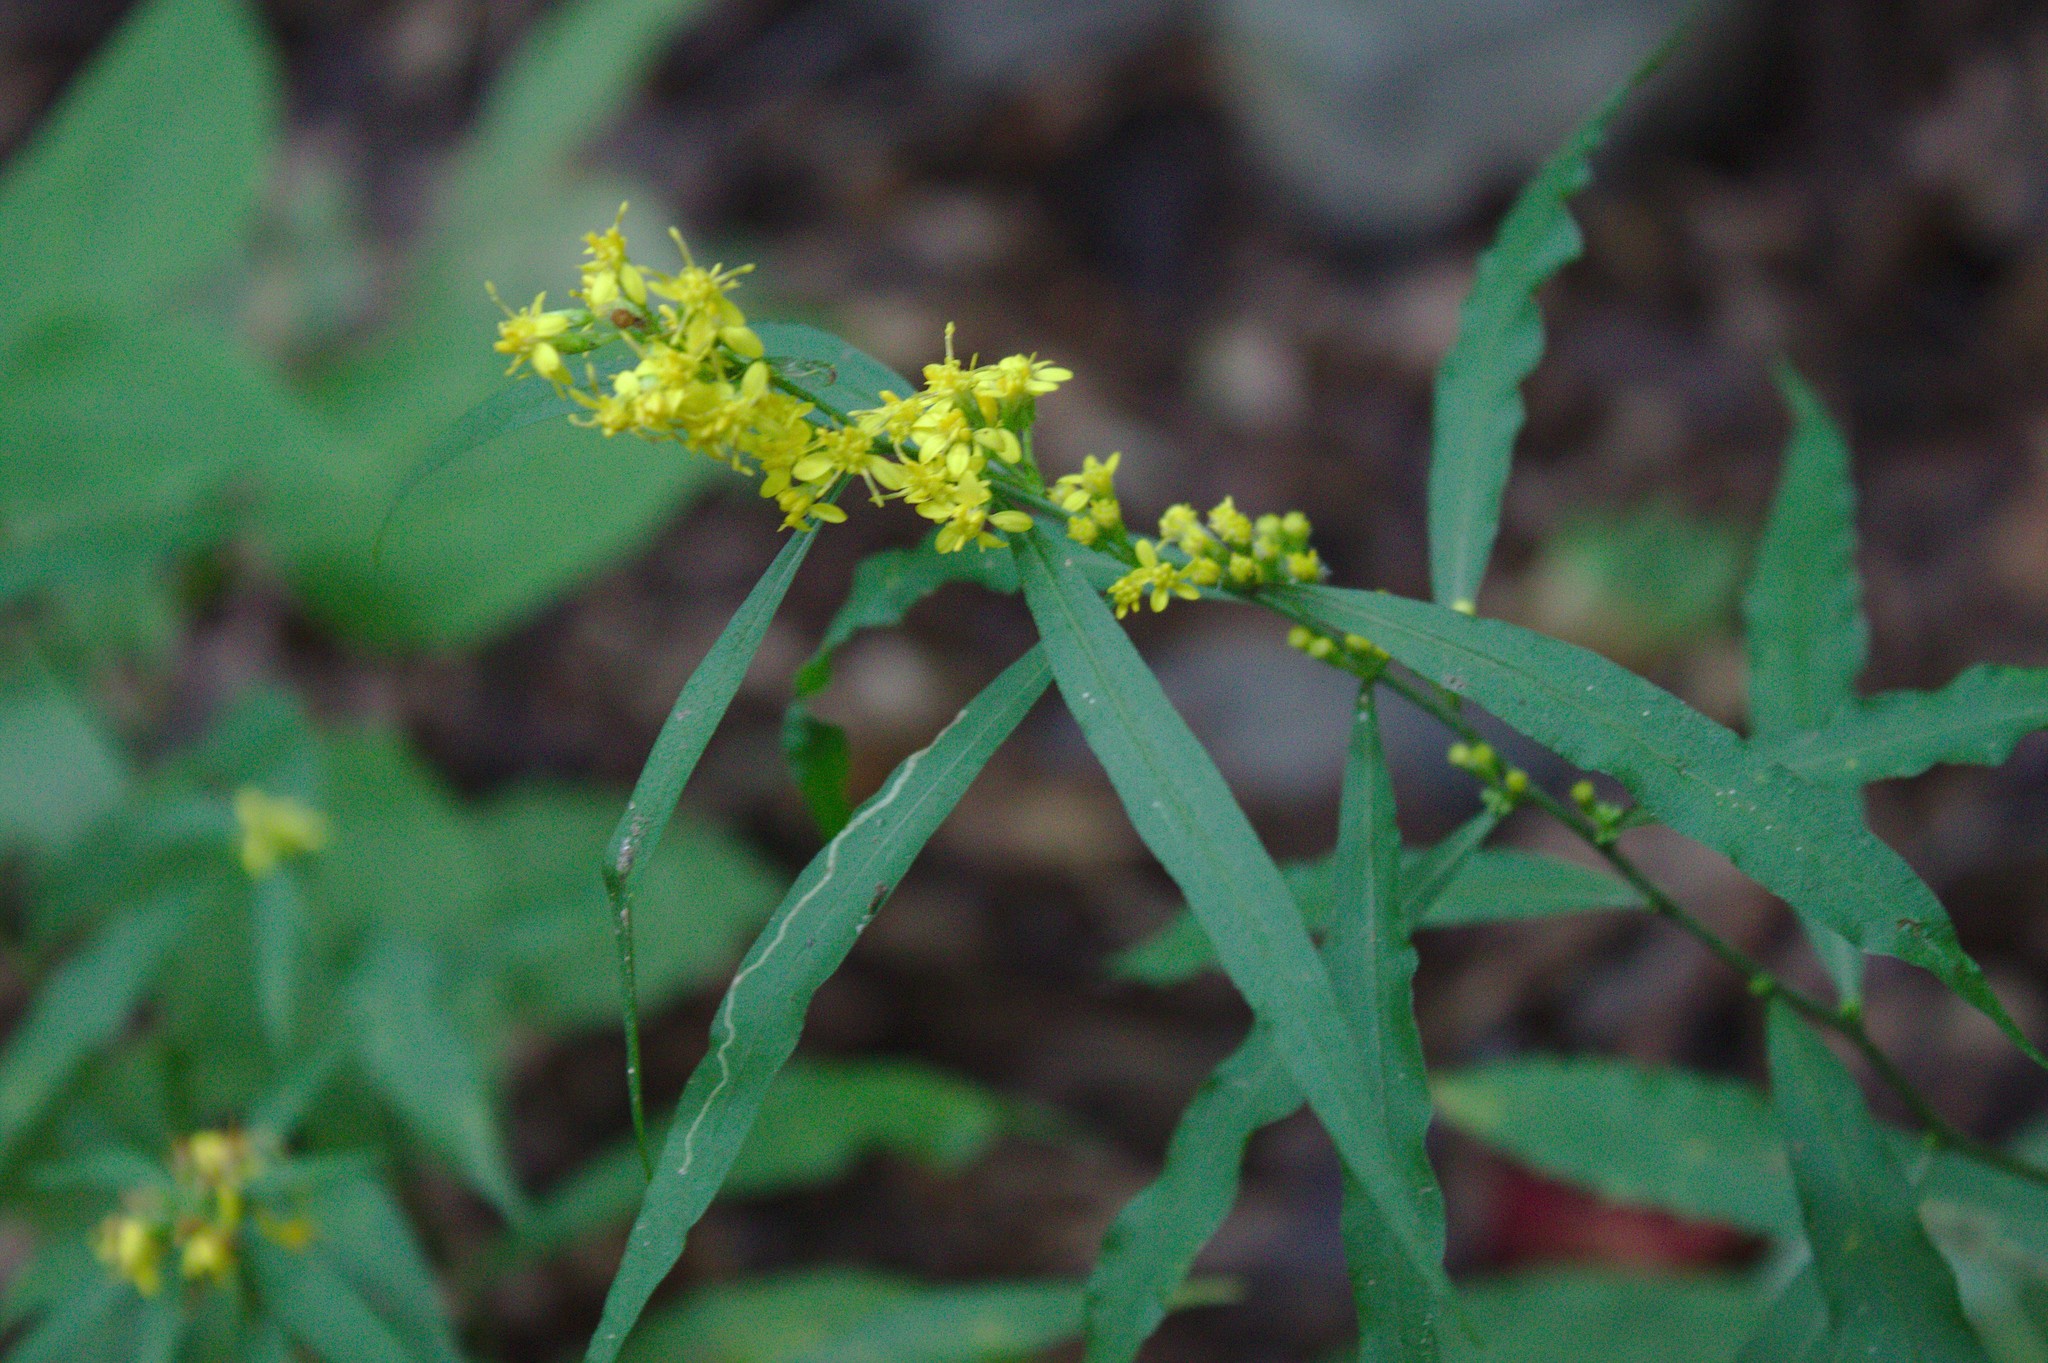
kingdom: Plantae
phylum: Tracheophyta
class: Magnoliopsida
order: Asterales
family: Asteraceae
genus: Solidago
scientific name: Solidago caesia
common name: Woodland goldenrod
